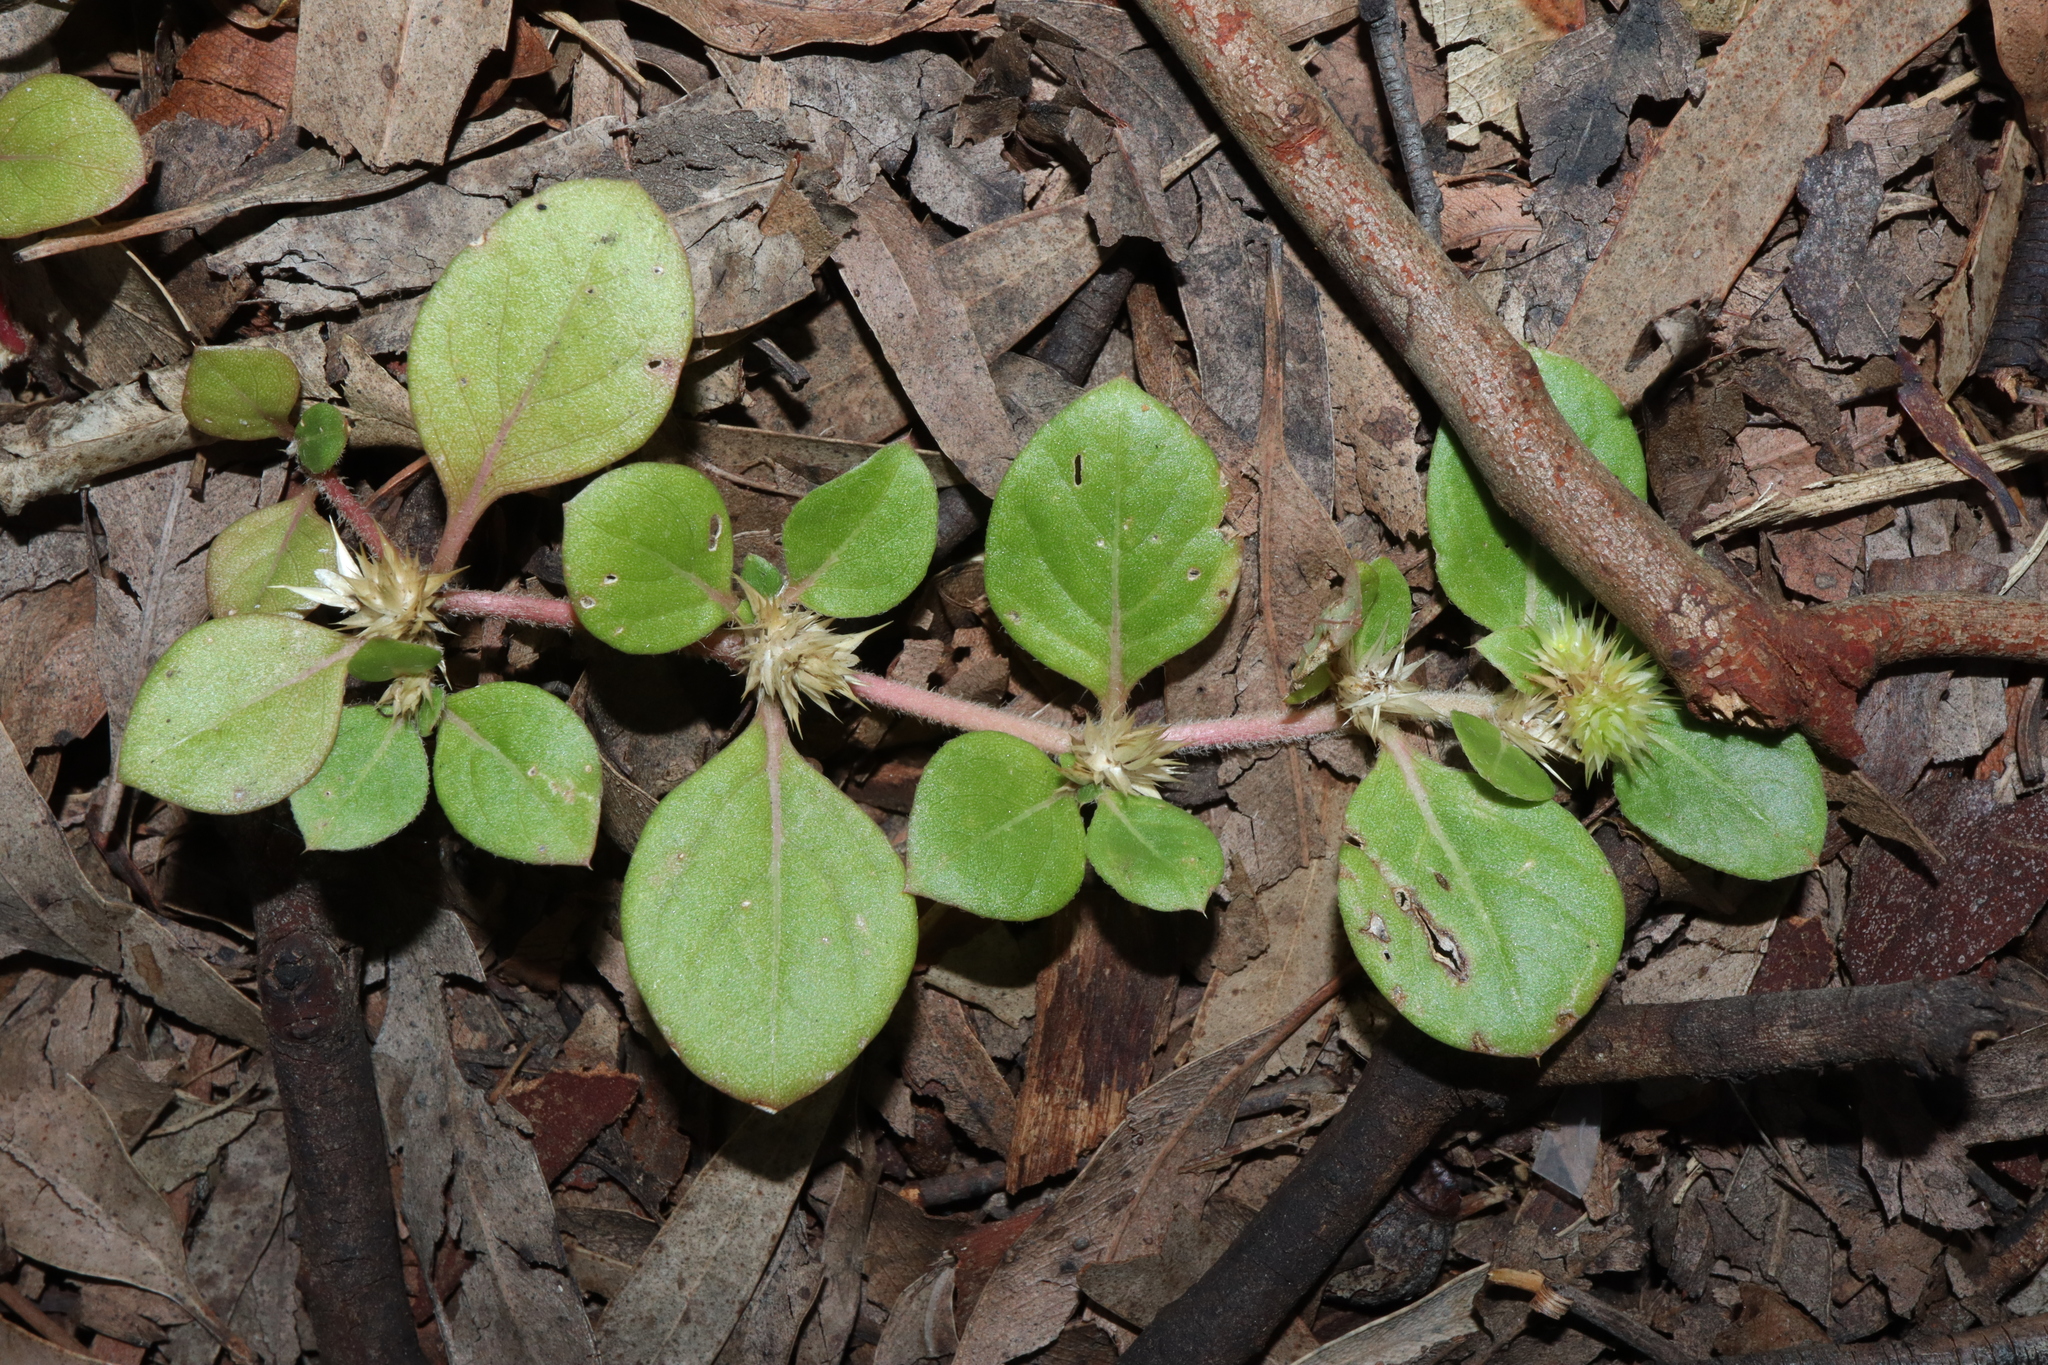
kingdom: Plantae
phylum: Tracheophyta
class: Magnoliopsida
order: Caryophyllales
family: Amaranthaceae
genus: Alternanthera
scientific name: Alternanthera pungens
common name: Khakiweed
